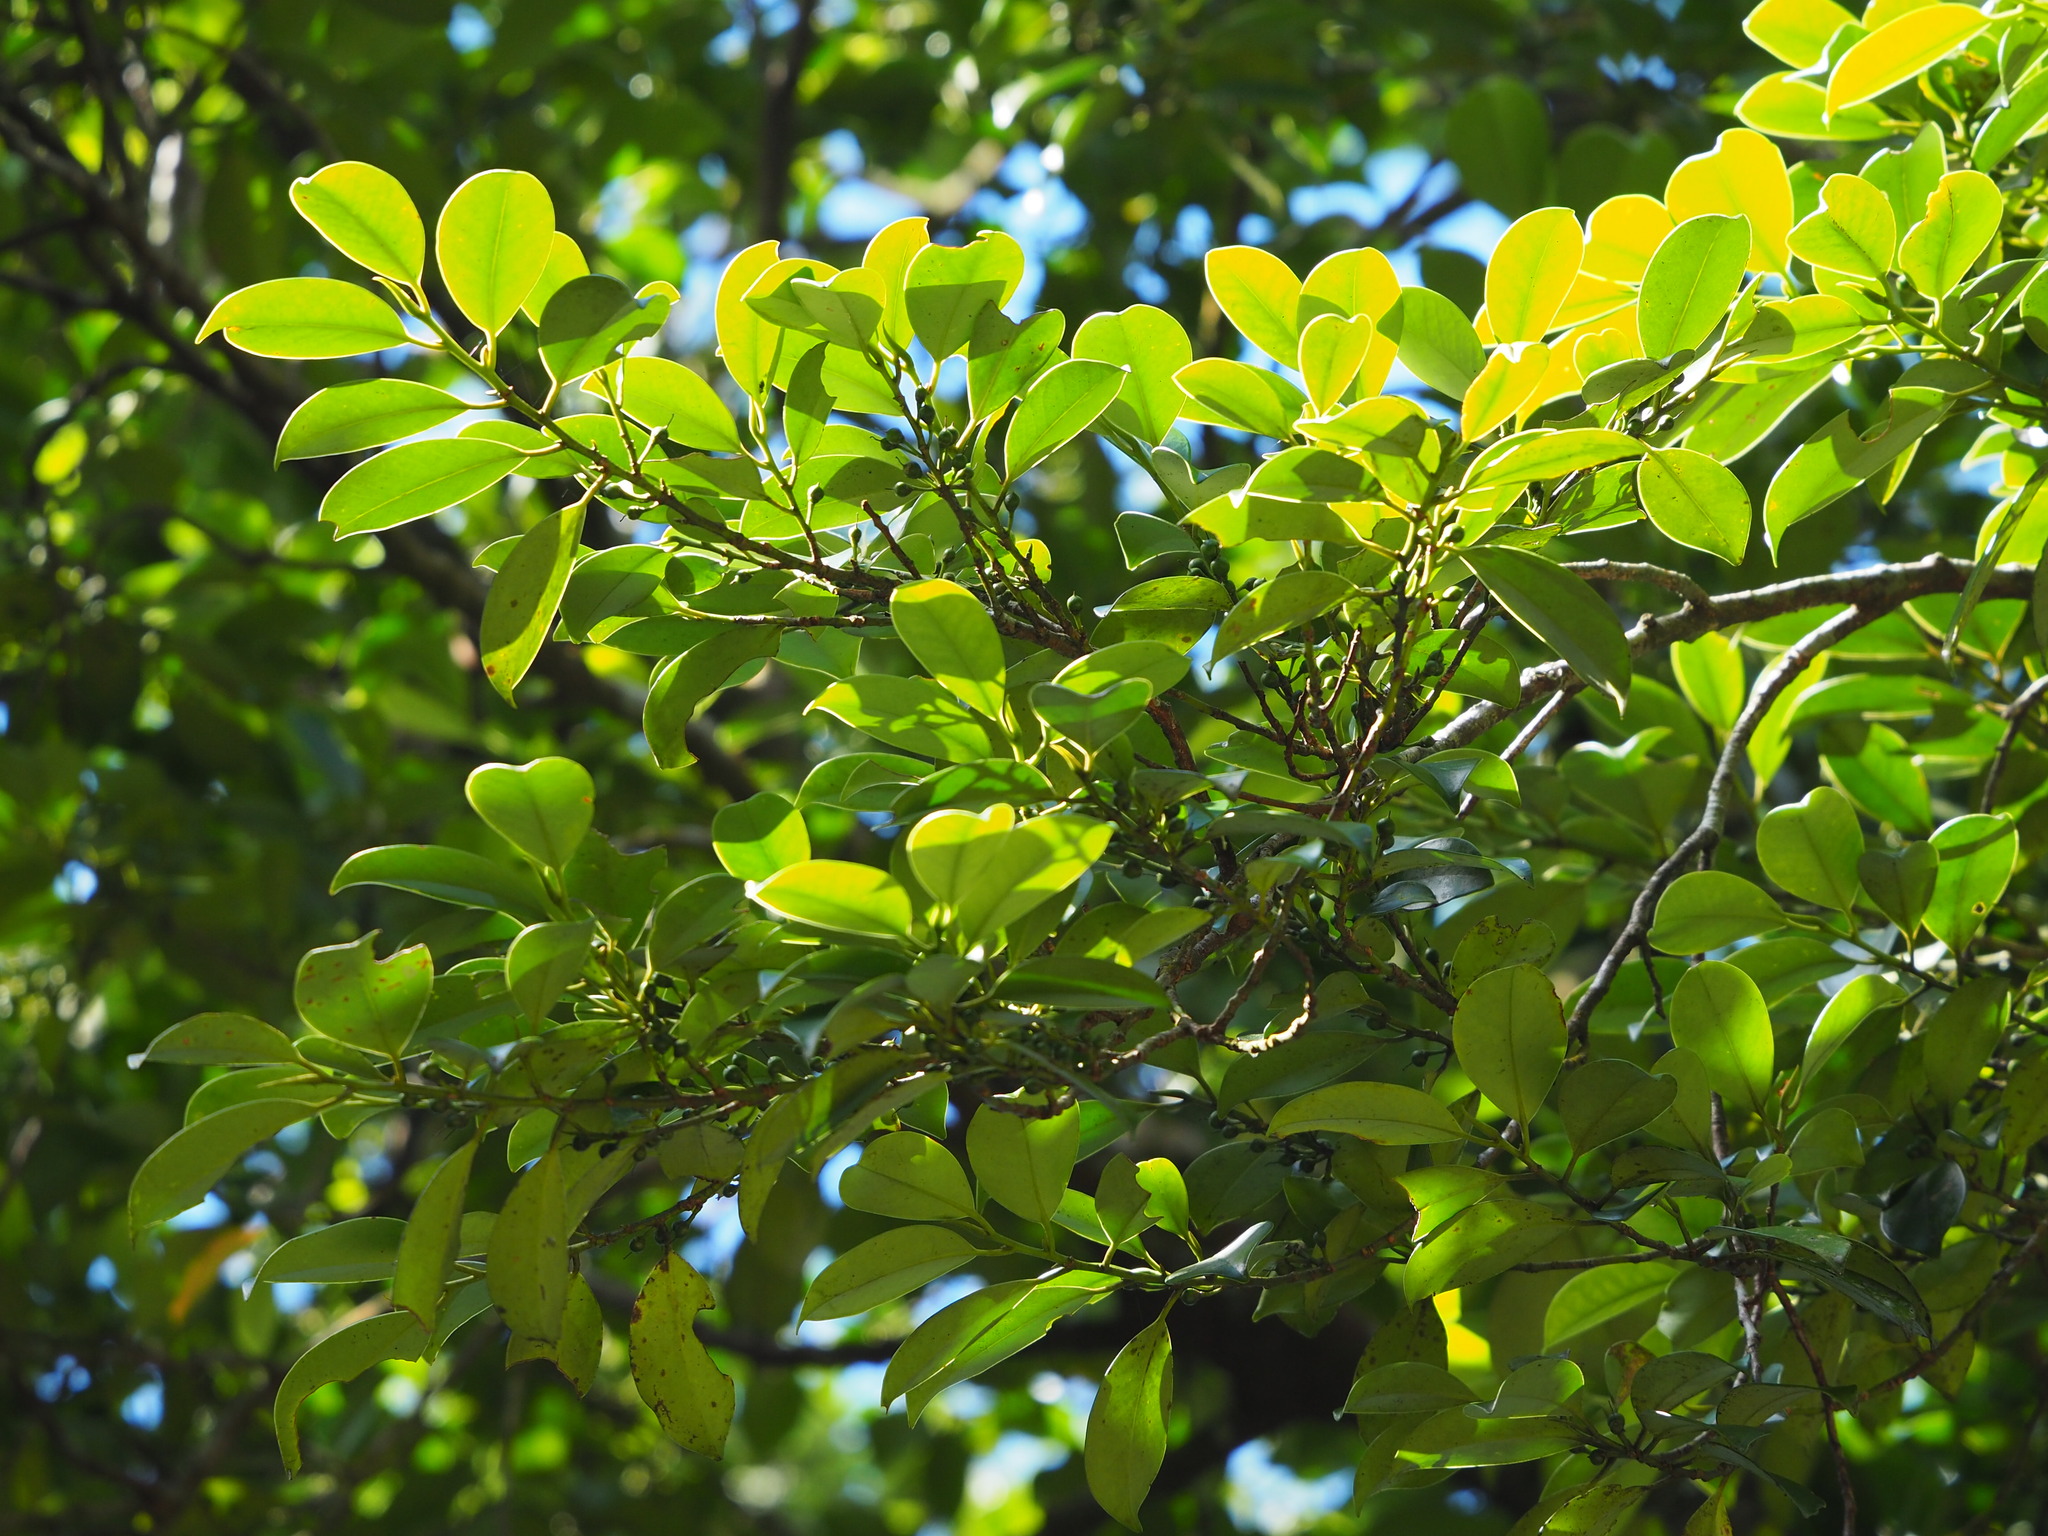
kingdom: Plantae
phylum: Tracheophyta
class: Magnoliopsida
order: Ericales
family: Pentaphylacaceae
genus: Cleyera
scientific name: Cleyera japonica
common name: Sakaki
